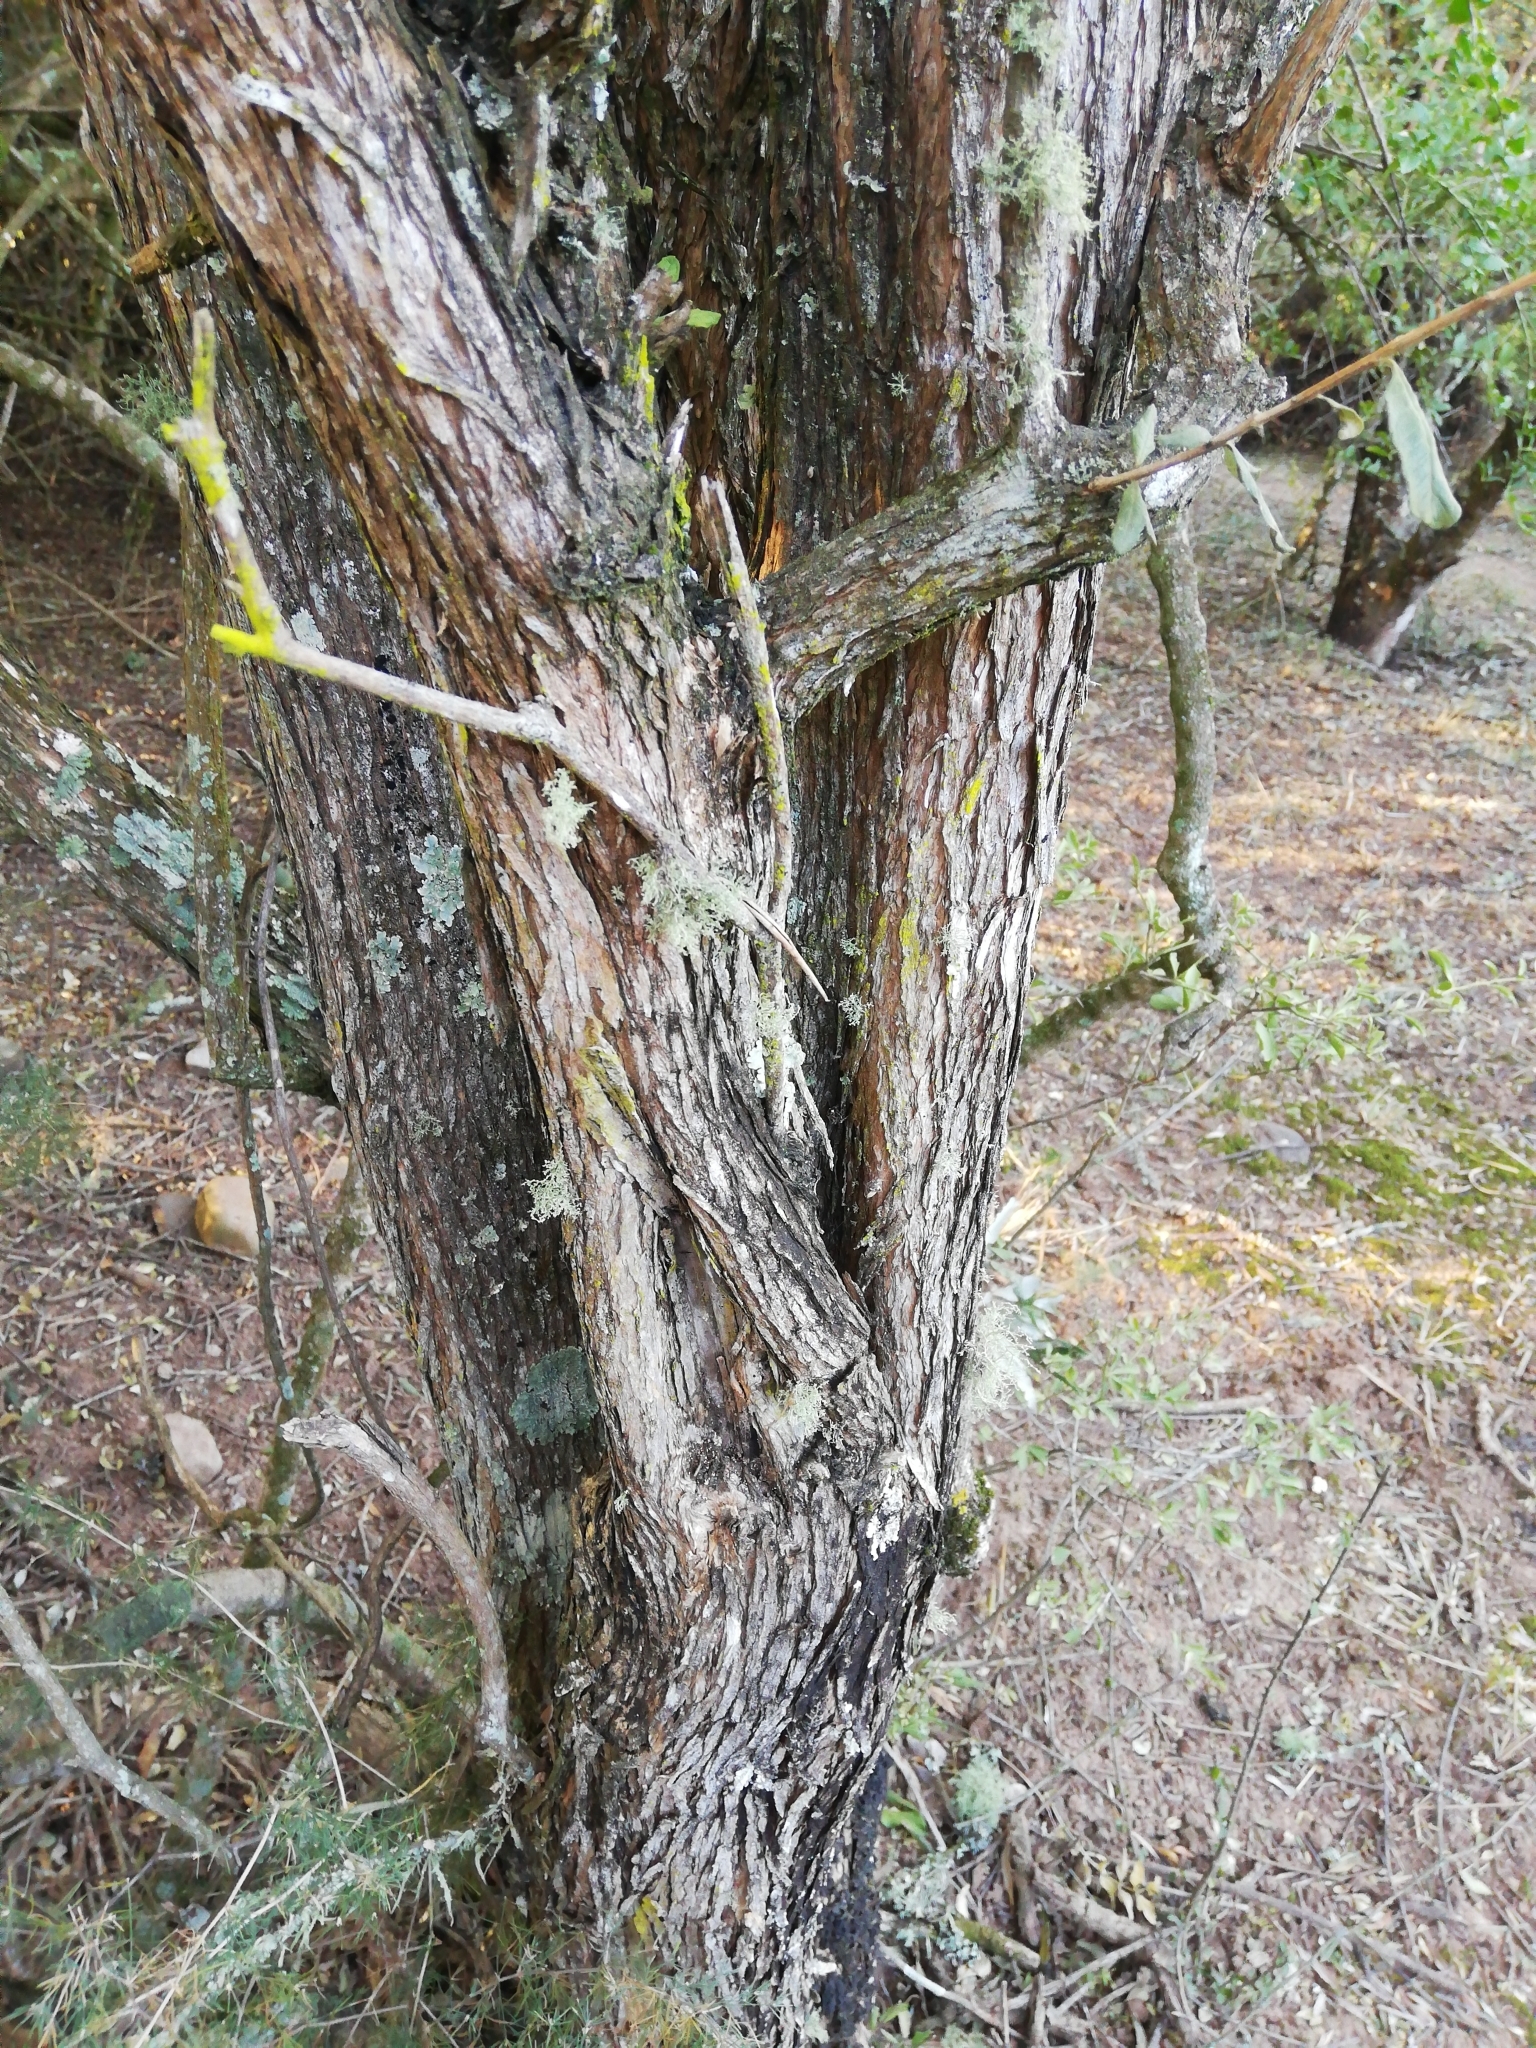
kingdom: Plantae
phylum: Tracheophyta
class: Magnoliopsida
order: Lamiales
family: Scrophulariaceae
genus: Buddleja
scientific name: Buddleja saligna
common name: False olive
